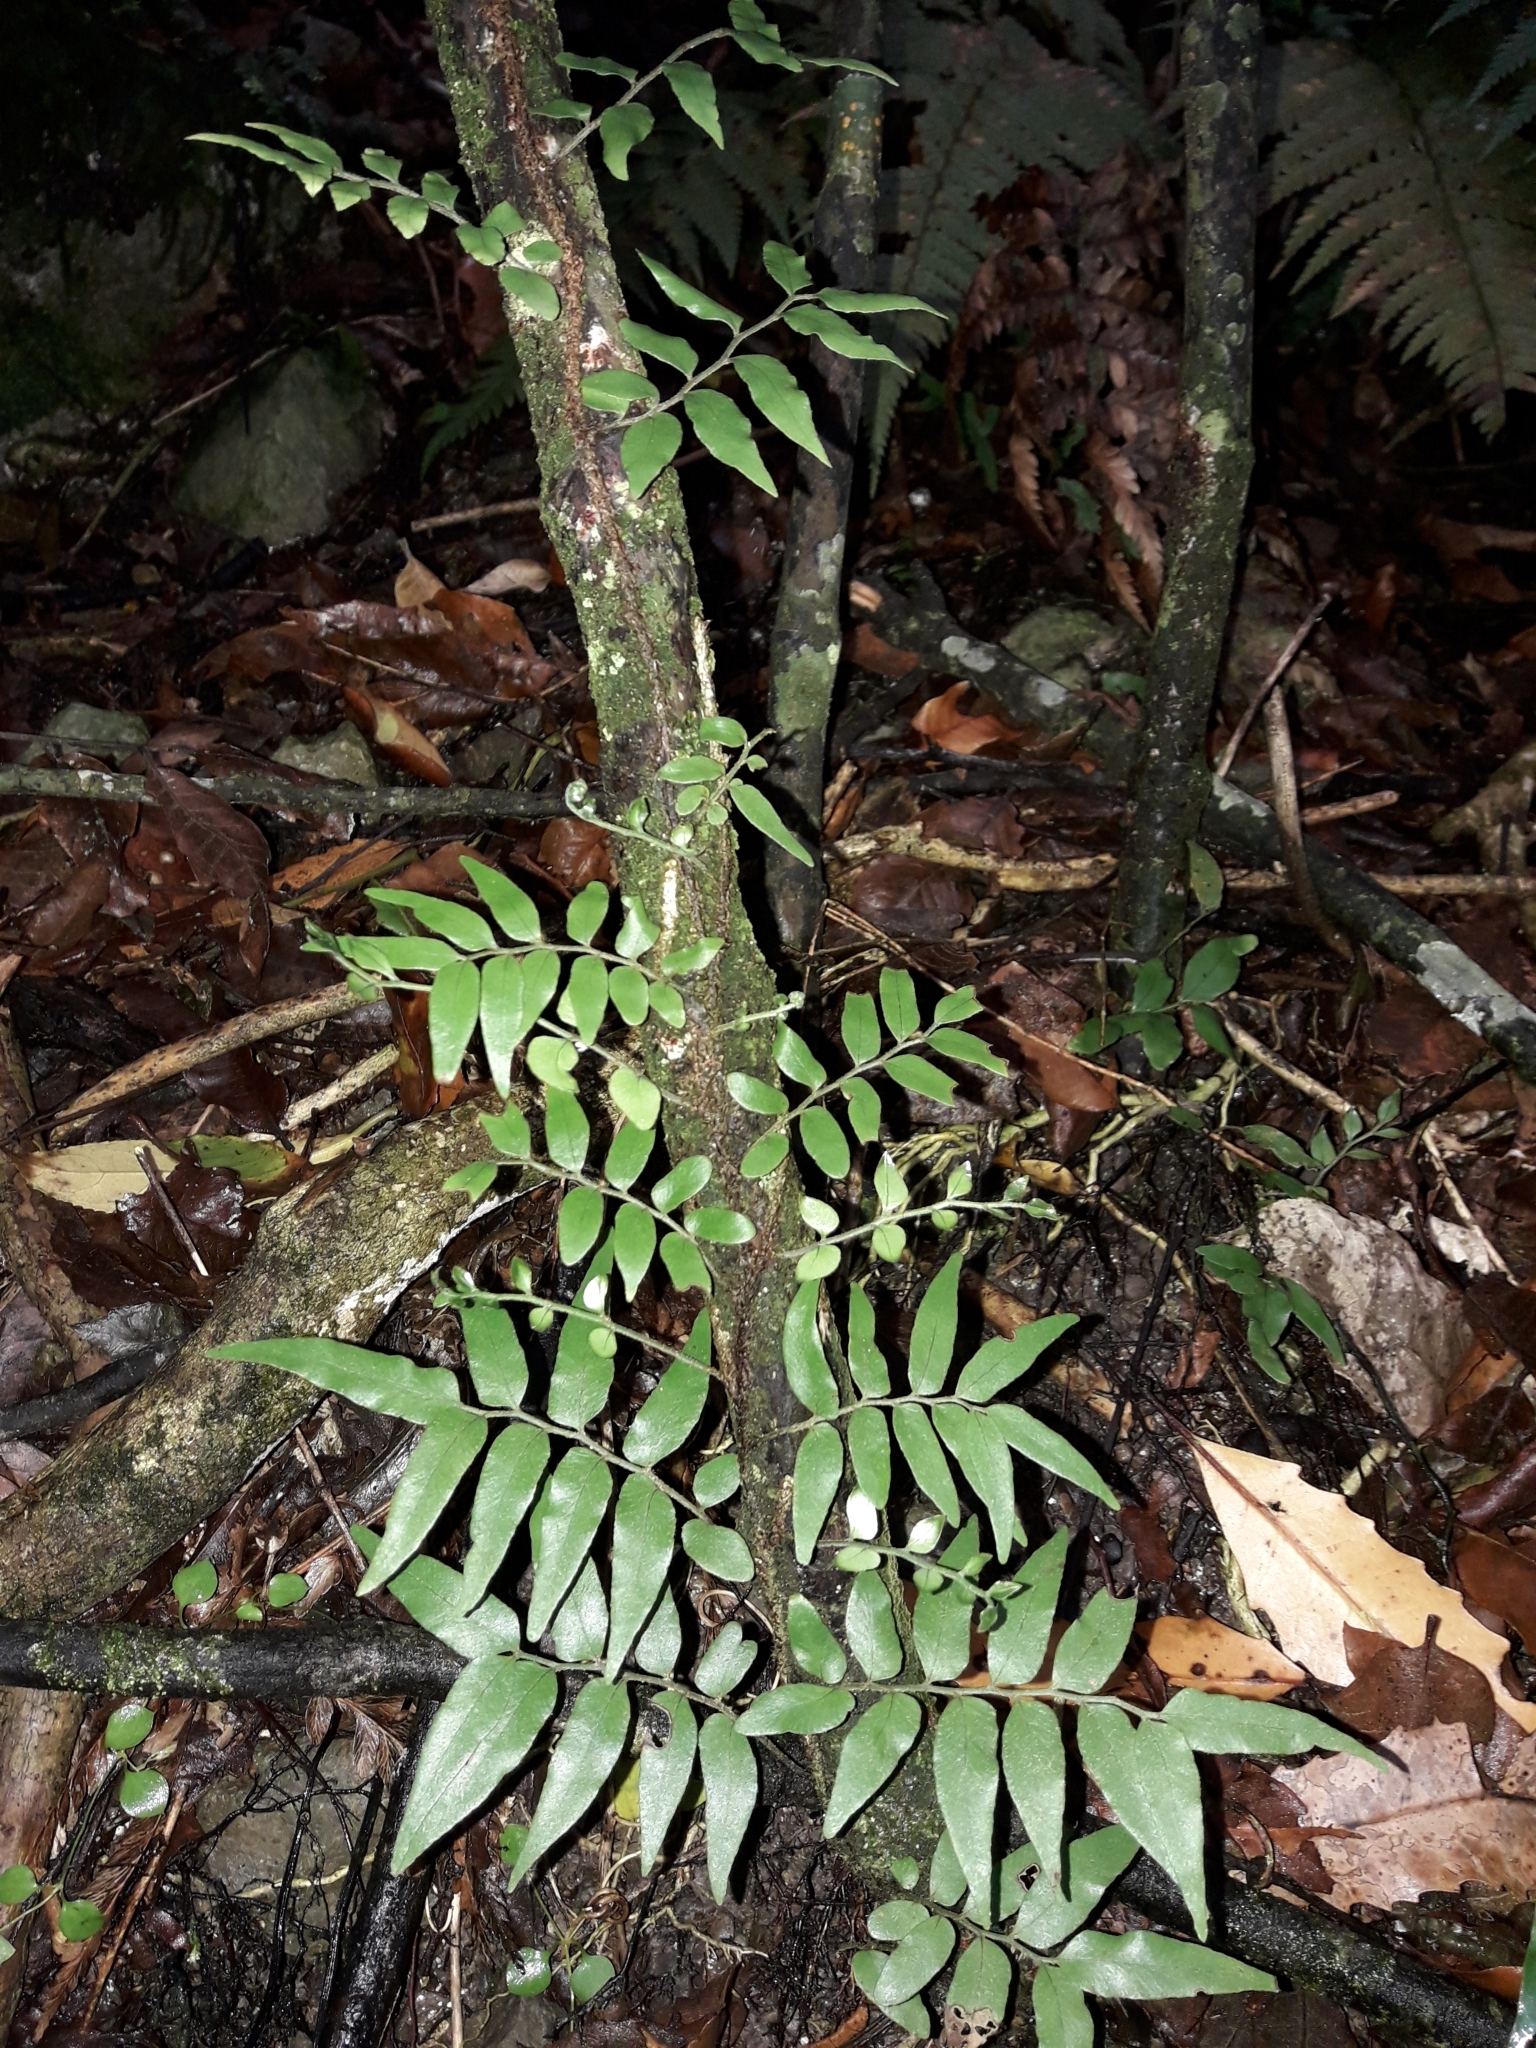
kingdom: Plantae
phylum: Tracheophyta
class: Polypodiopsida
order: Polypodiales
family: Tectariaceae
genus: Arthropteris
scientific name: Arthropteris tenella
